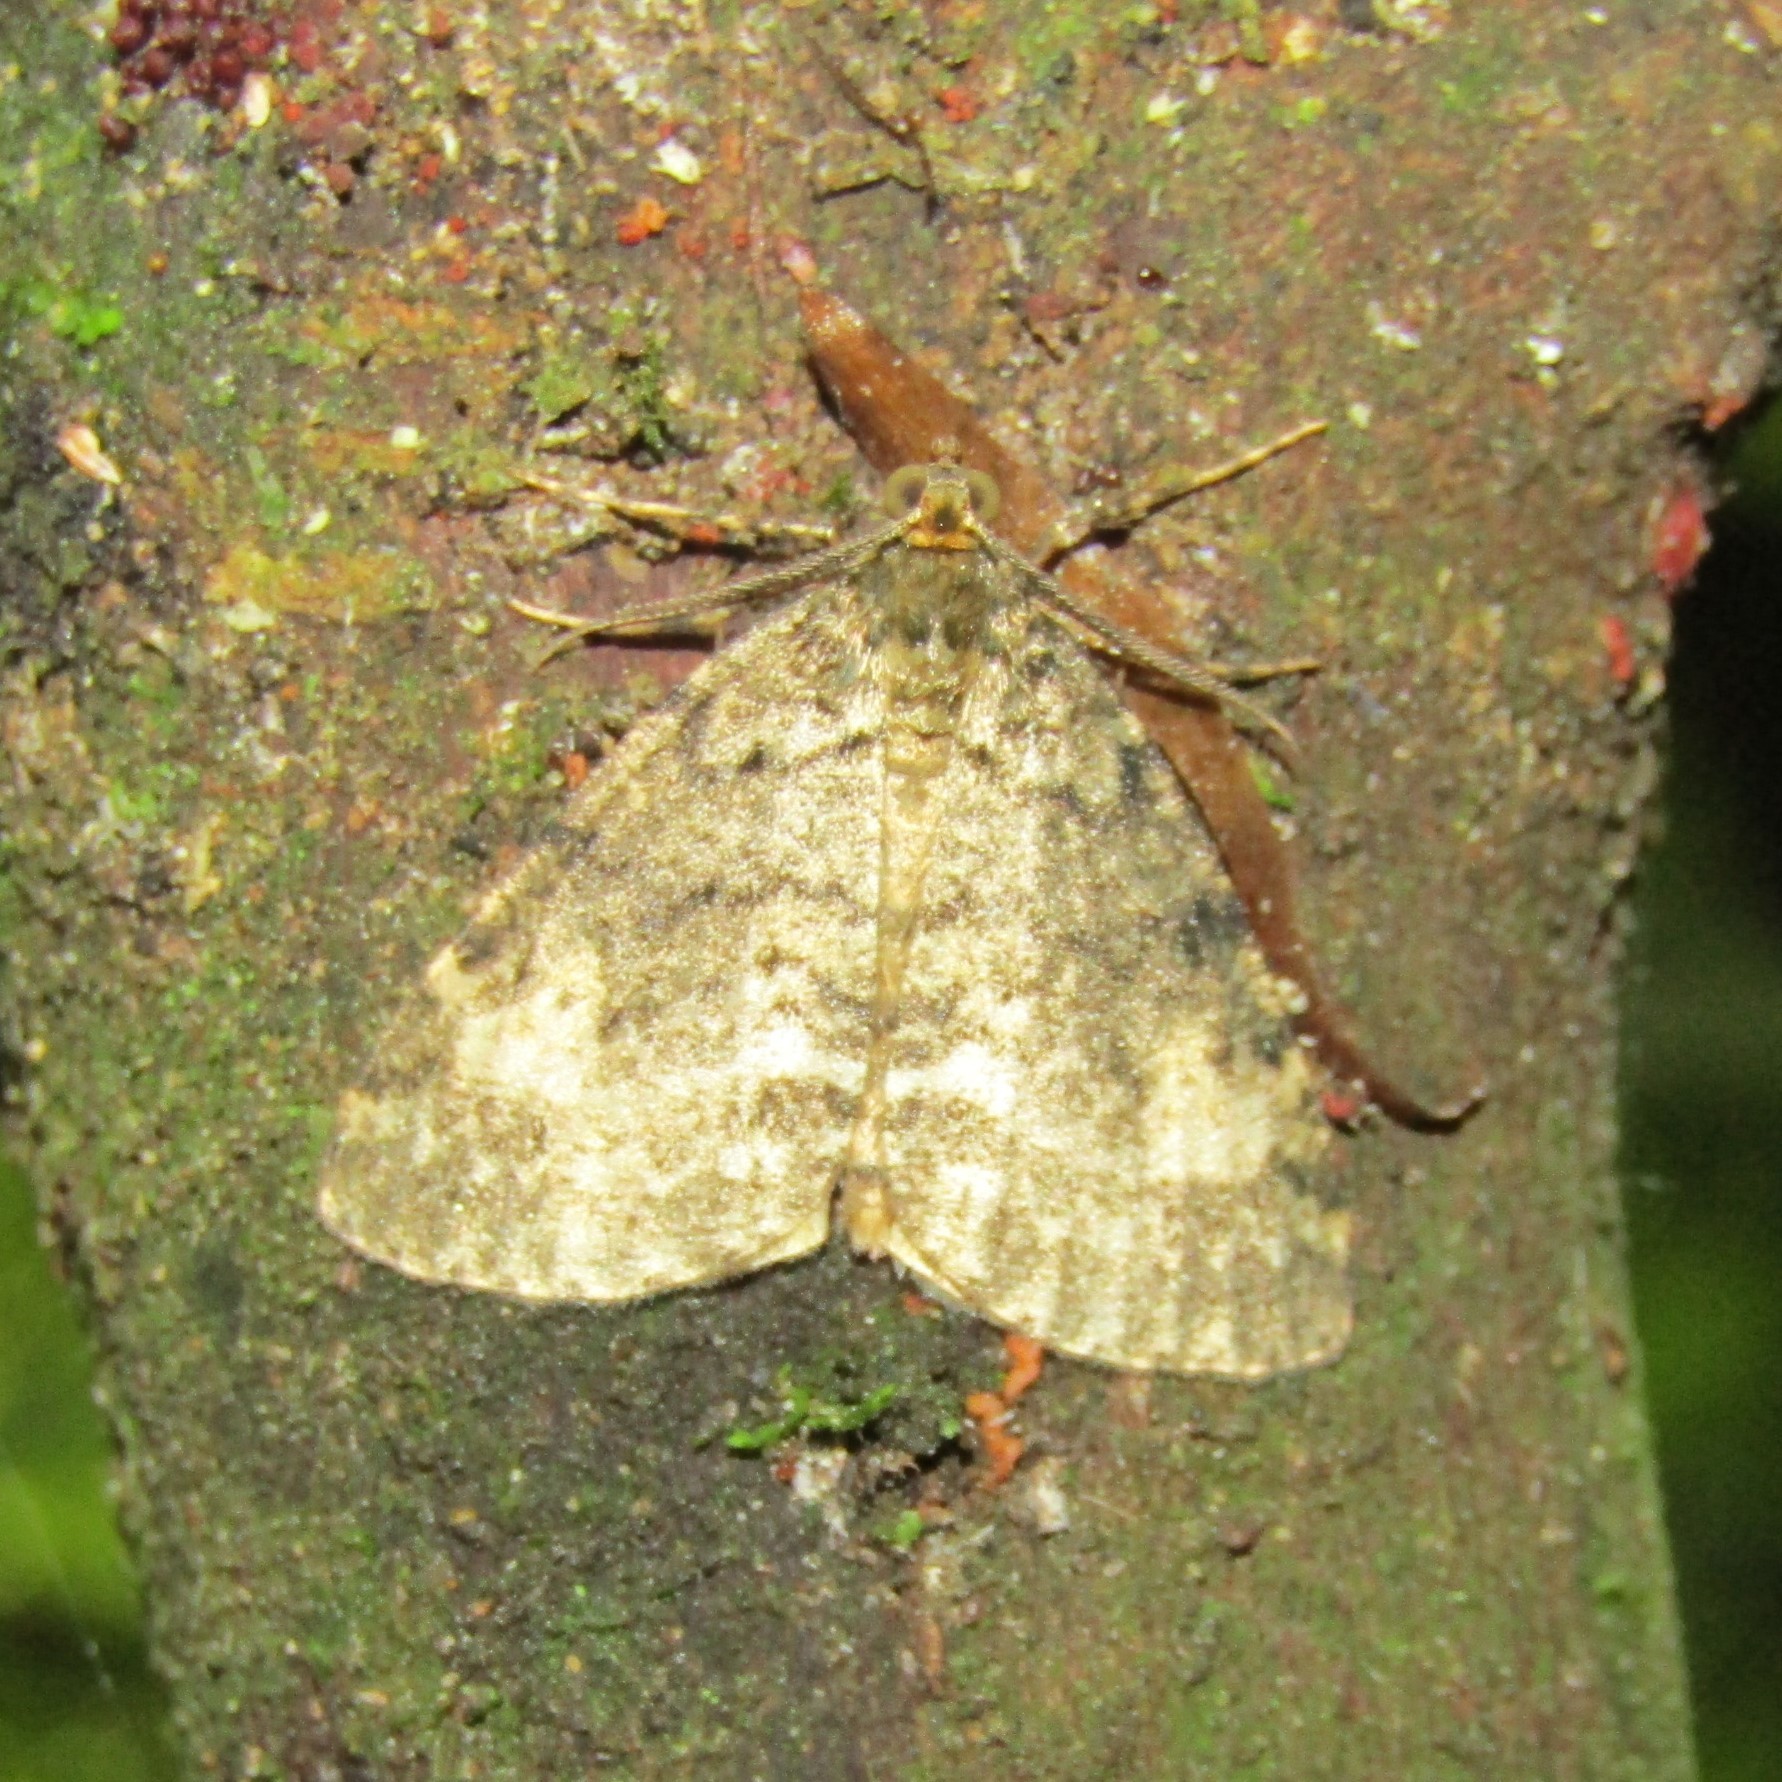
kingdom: Animalia
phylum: Arthropoda
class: Insecta
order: Lepidoptera
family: Geometridae
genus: Pseudocoremia
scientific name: Pseudocoremia indistincta
